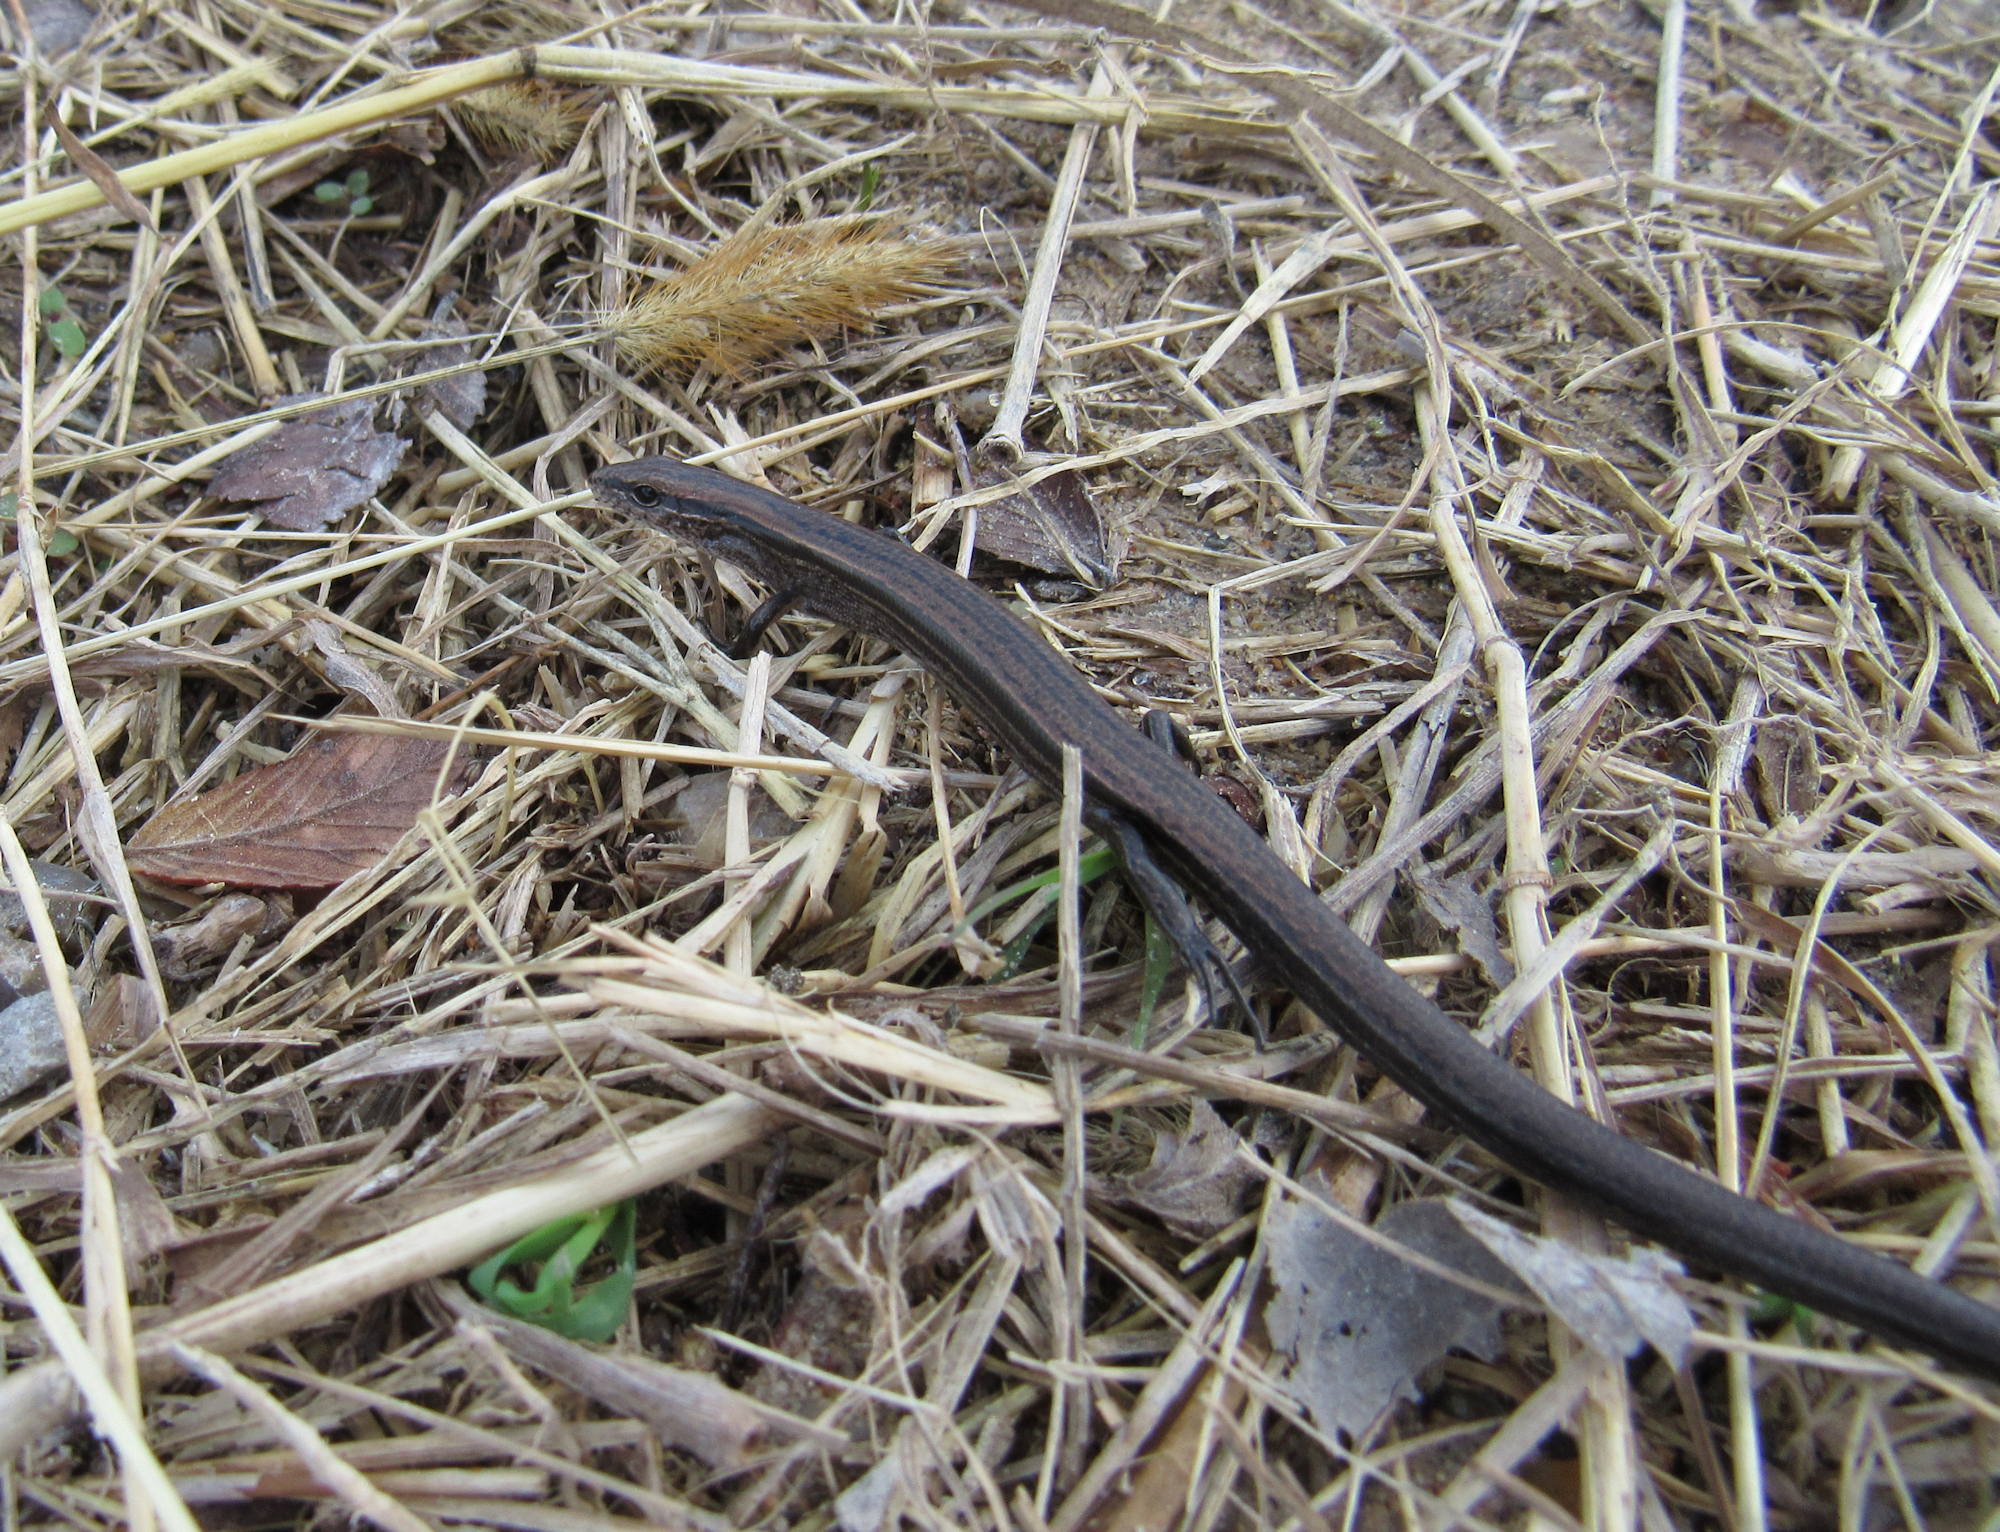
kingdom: Animalia
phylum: Chordata
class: Squamata
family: Scincidae
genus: Scincella
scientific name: Scincella lateralis
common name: Ground skink
